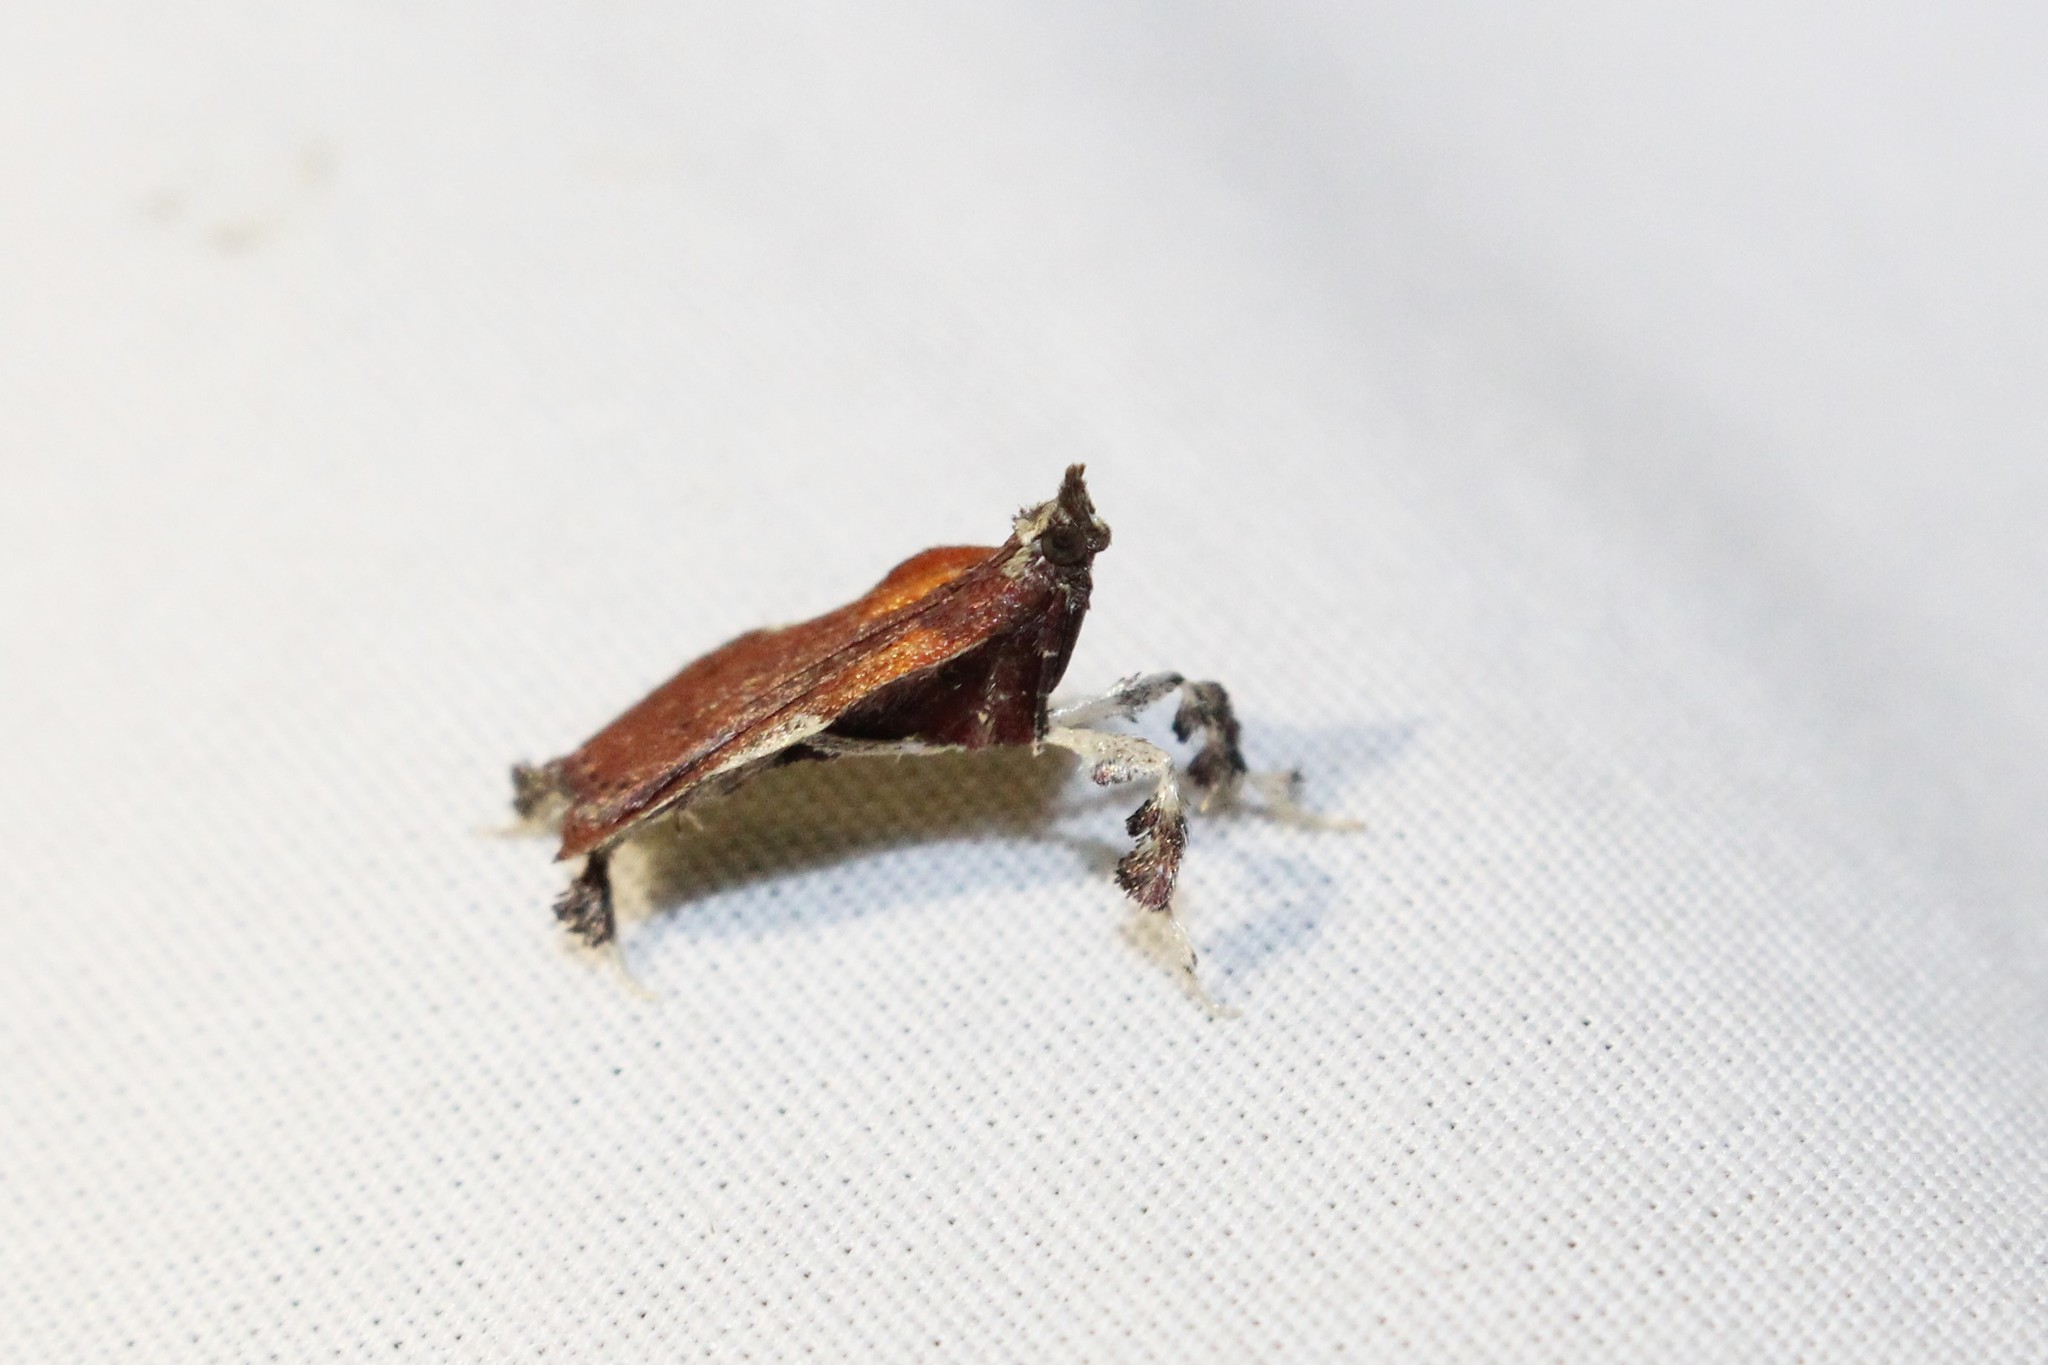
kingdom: Animalia
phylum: Arthropoda
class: Insecta
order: Lepidoptera
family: Pyralidae
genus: Galasa
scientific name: Galasa nigrinodis
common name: Boxwood leaftier moth
